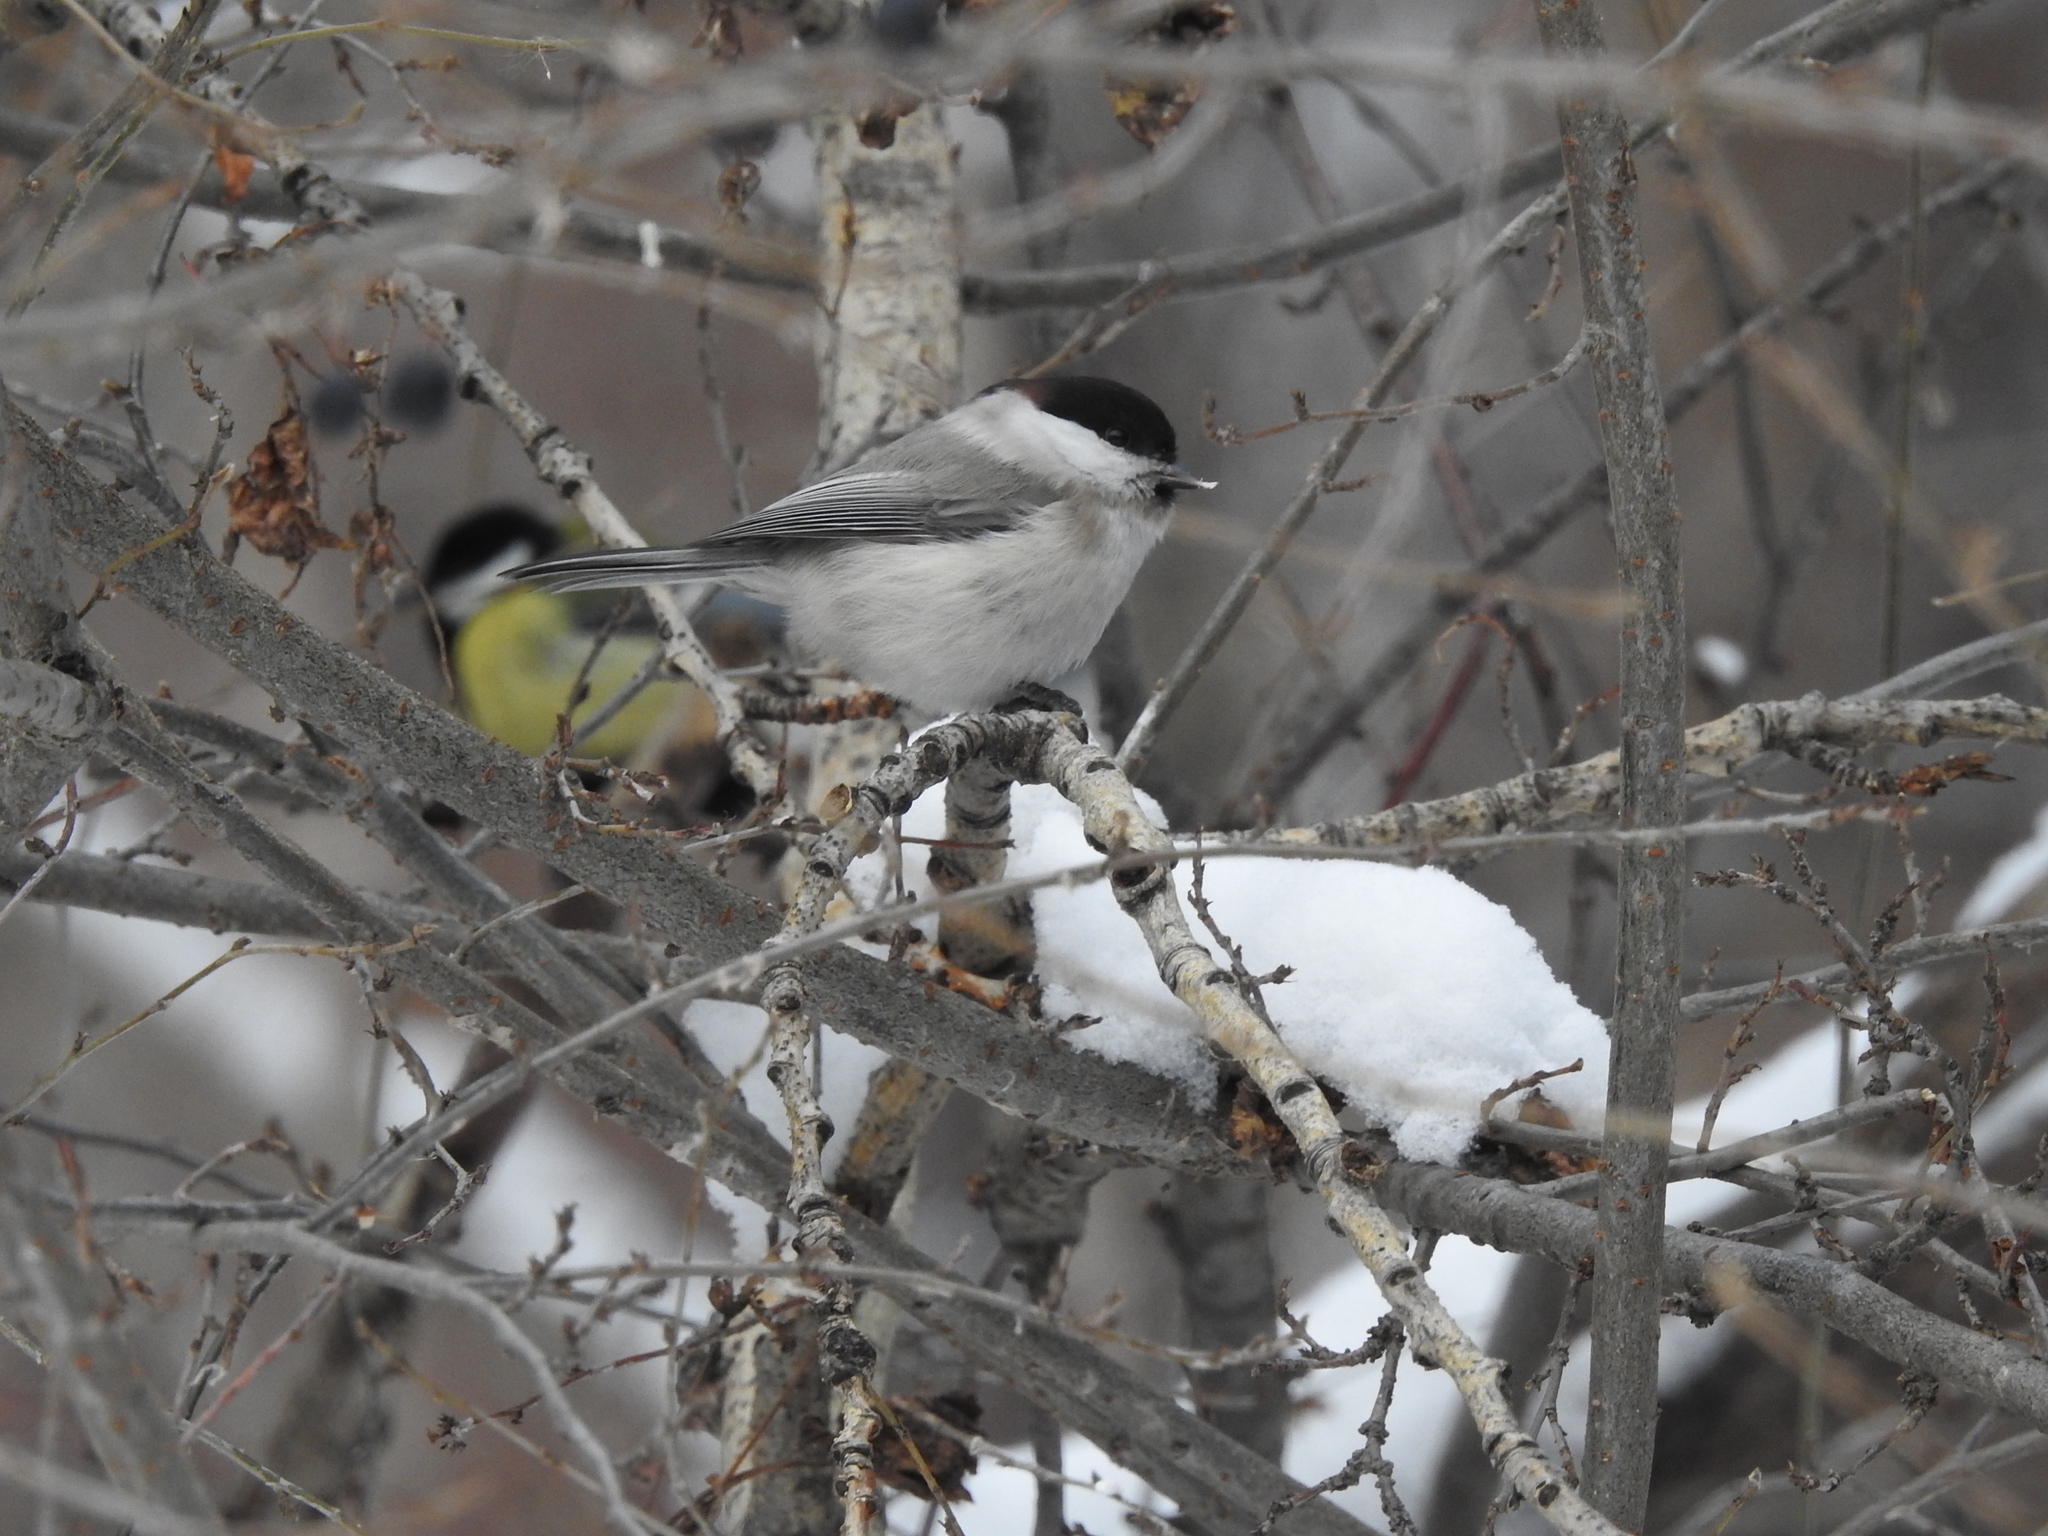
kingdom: Animalia
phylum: Chordata
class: Aves
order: Passeriformes
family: Paridae
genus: Poecile
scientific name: Poecile montanus
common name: Willow tit
